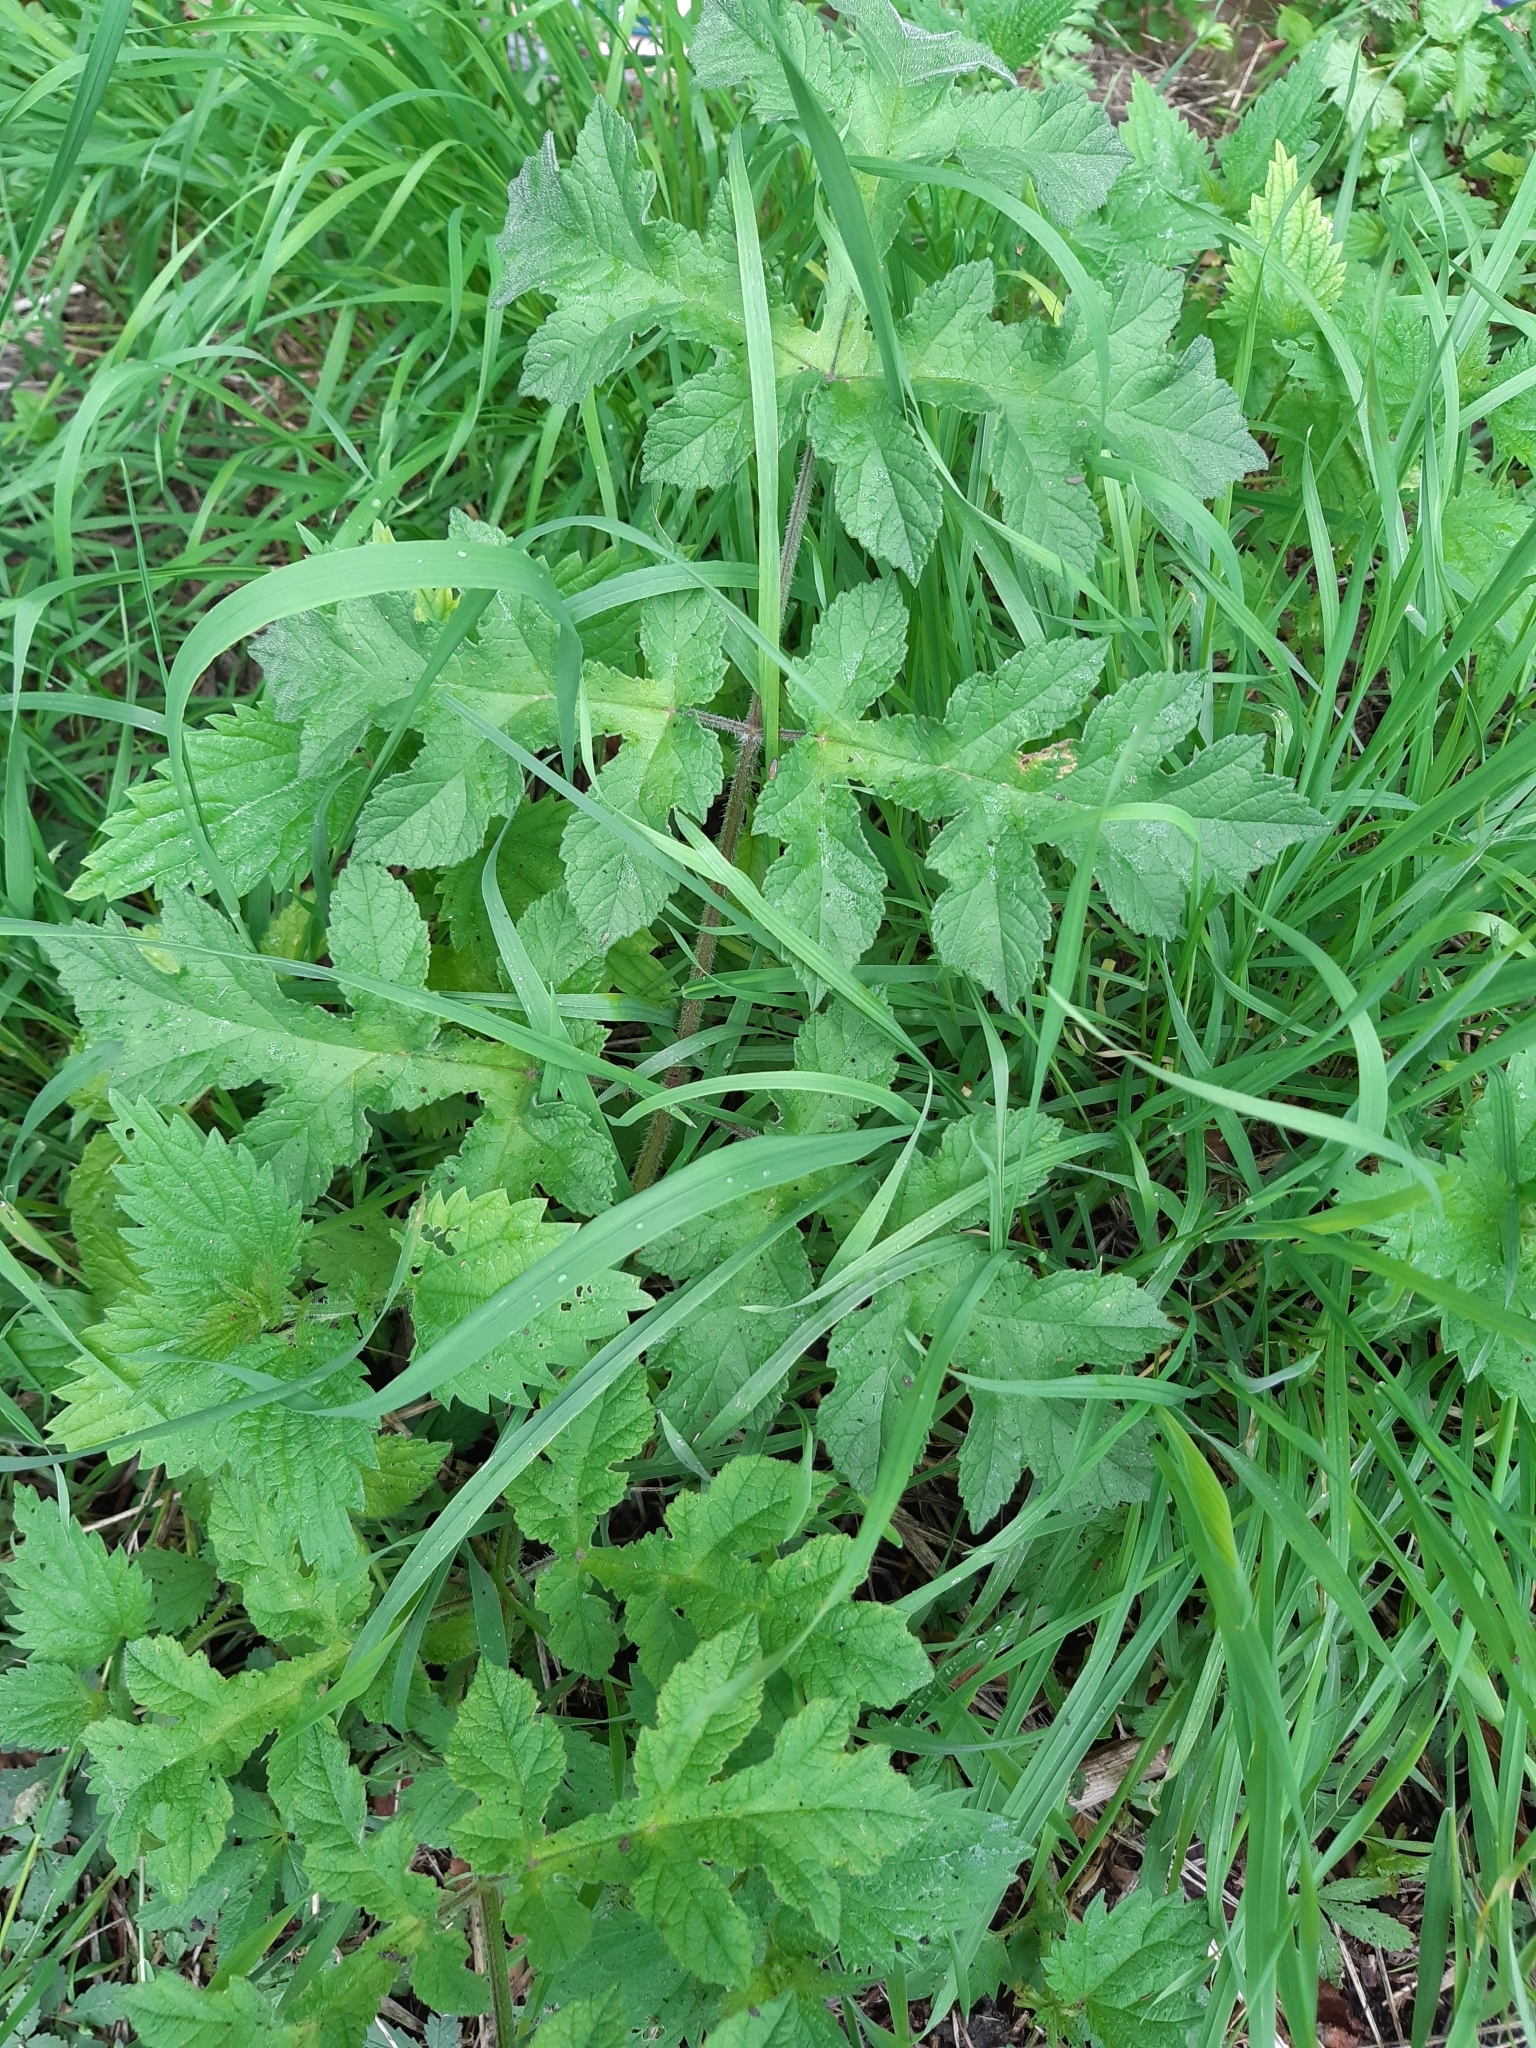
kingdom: Plantae
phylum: Tracheophyta
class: Magnoliopsida
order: Apiales
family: Apiaceae
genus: Heracleum
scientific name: Heracleum sphondylium
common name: Hogweed
